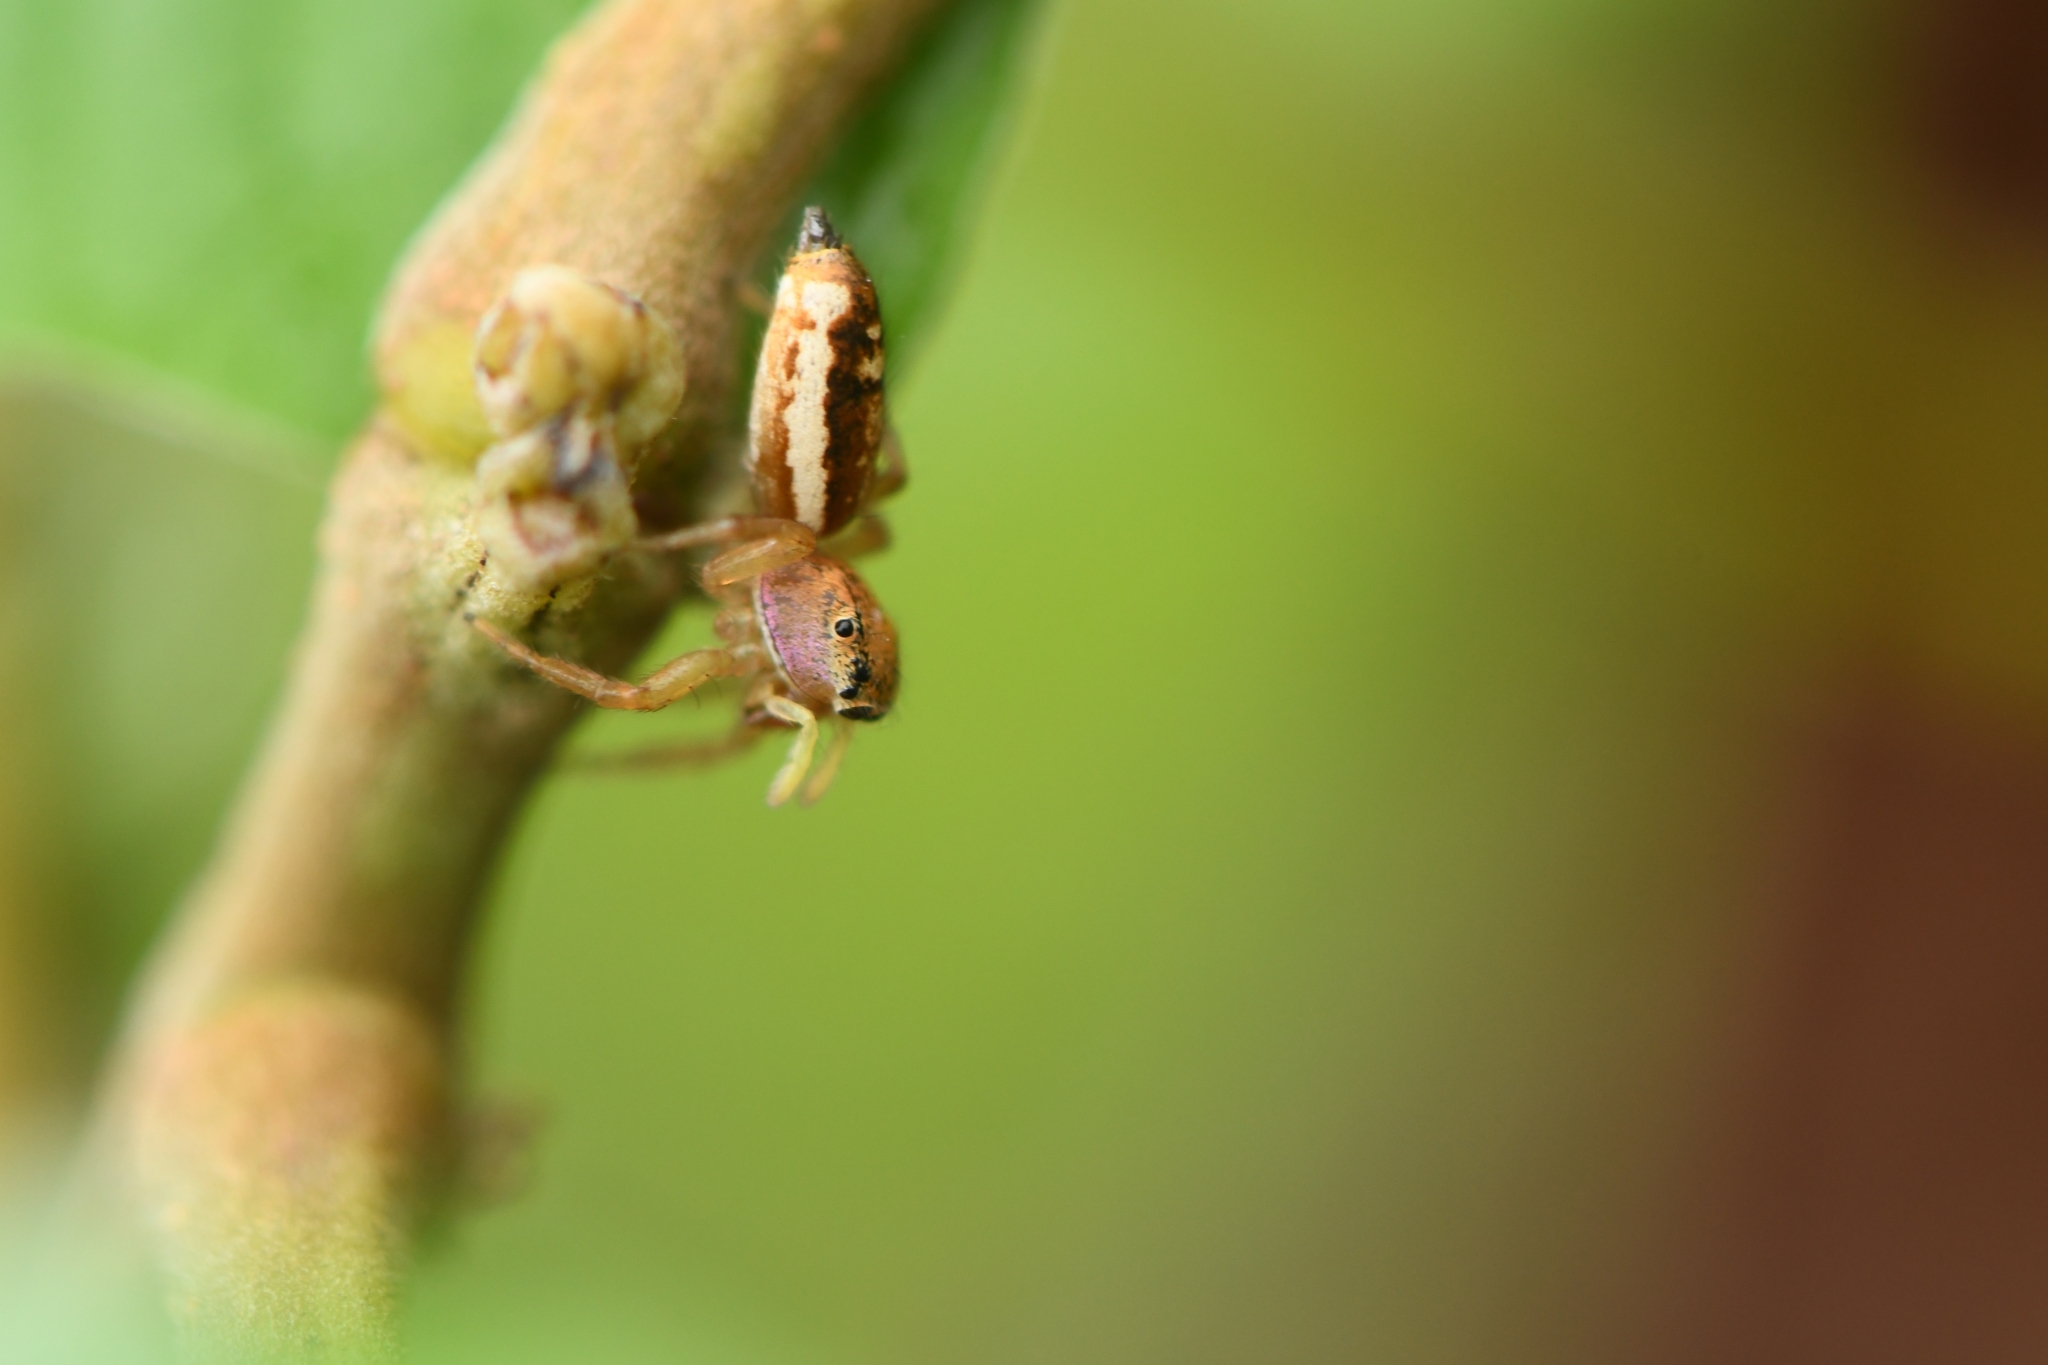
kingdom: Animalia
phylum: Arthropoda
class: Arachnida
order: Araneae
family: Salticidae
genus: Cosmophasis
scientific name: Cosmophasis lami
